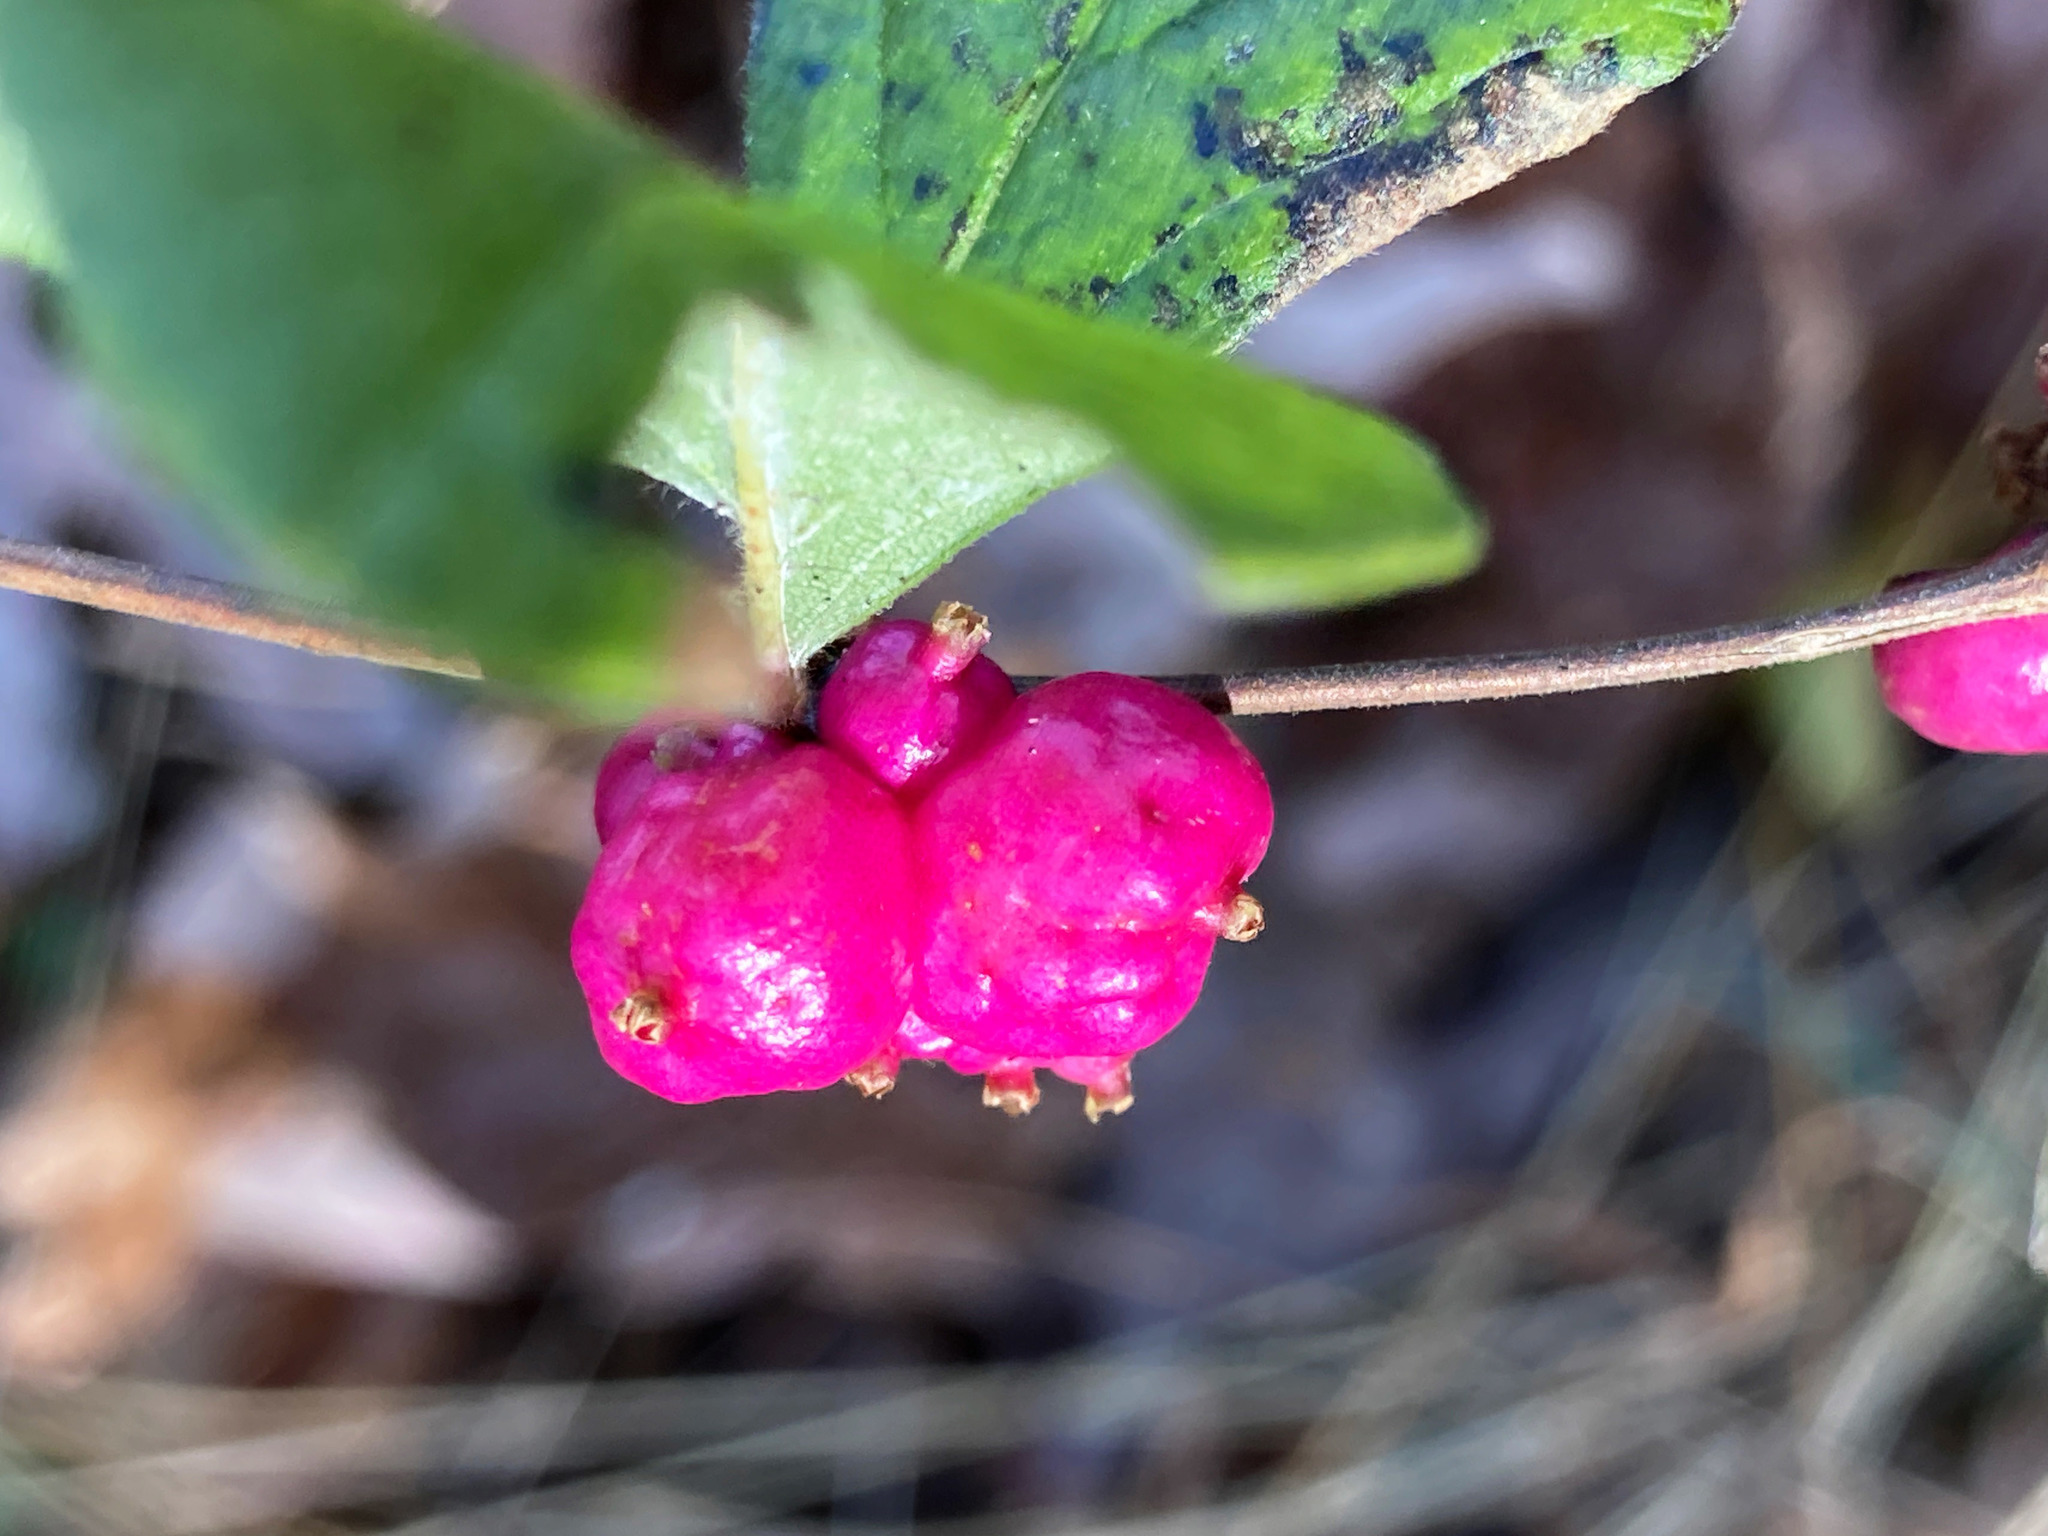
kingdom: Plantae
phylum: Tracheophyta
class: Magnoliopsida
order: Dipsacales
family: Caprifoliaceae
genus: Symphoricarpos
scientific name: Symphoricarpos orbiculatus
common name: Coralberry
